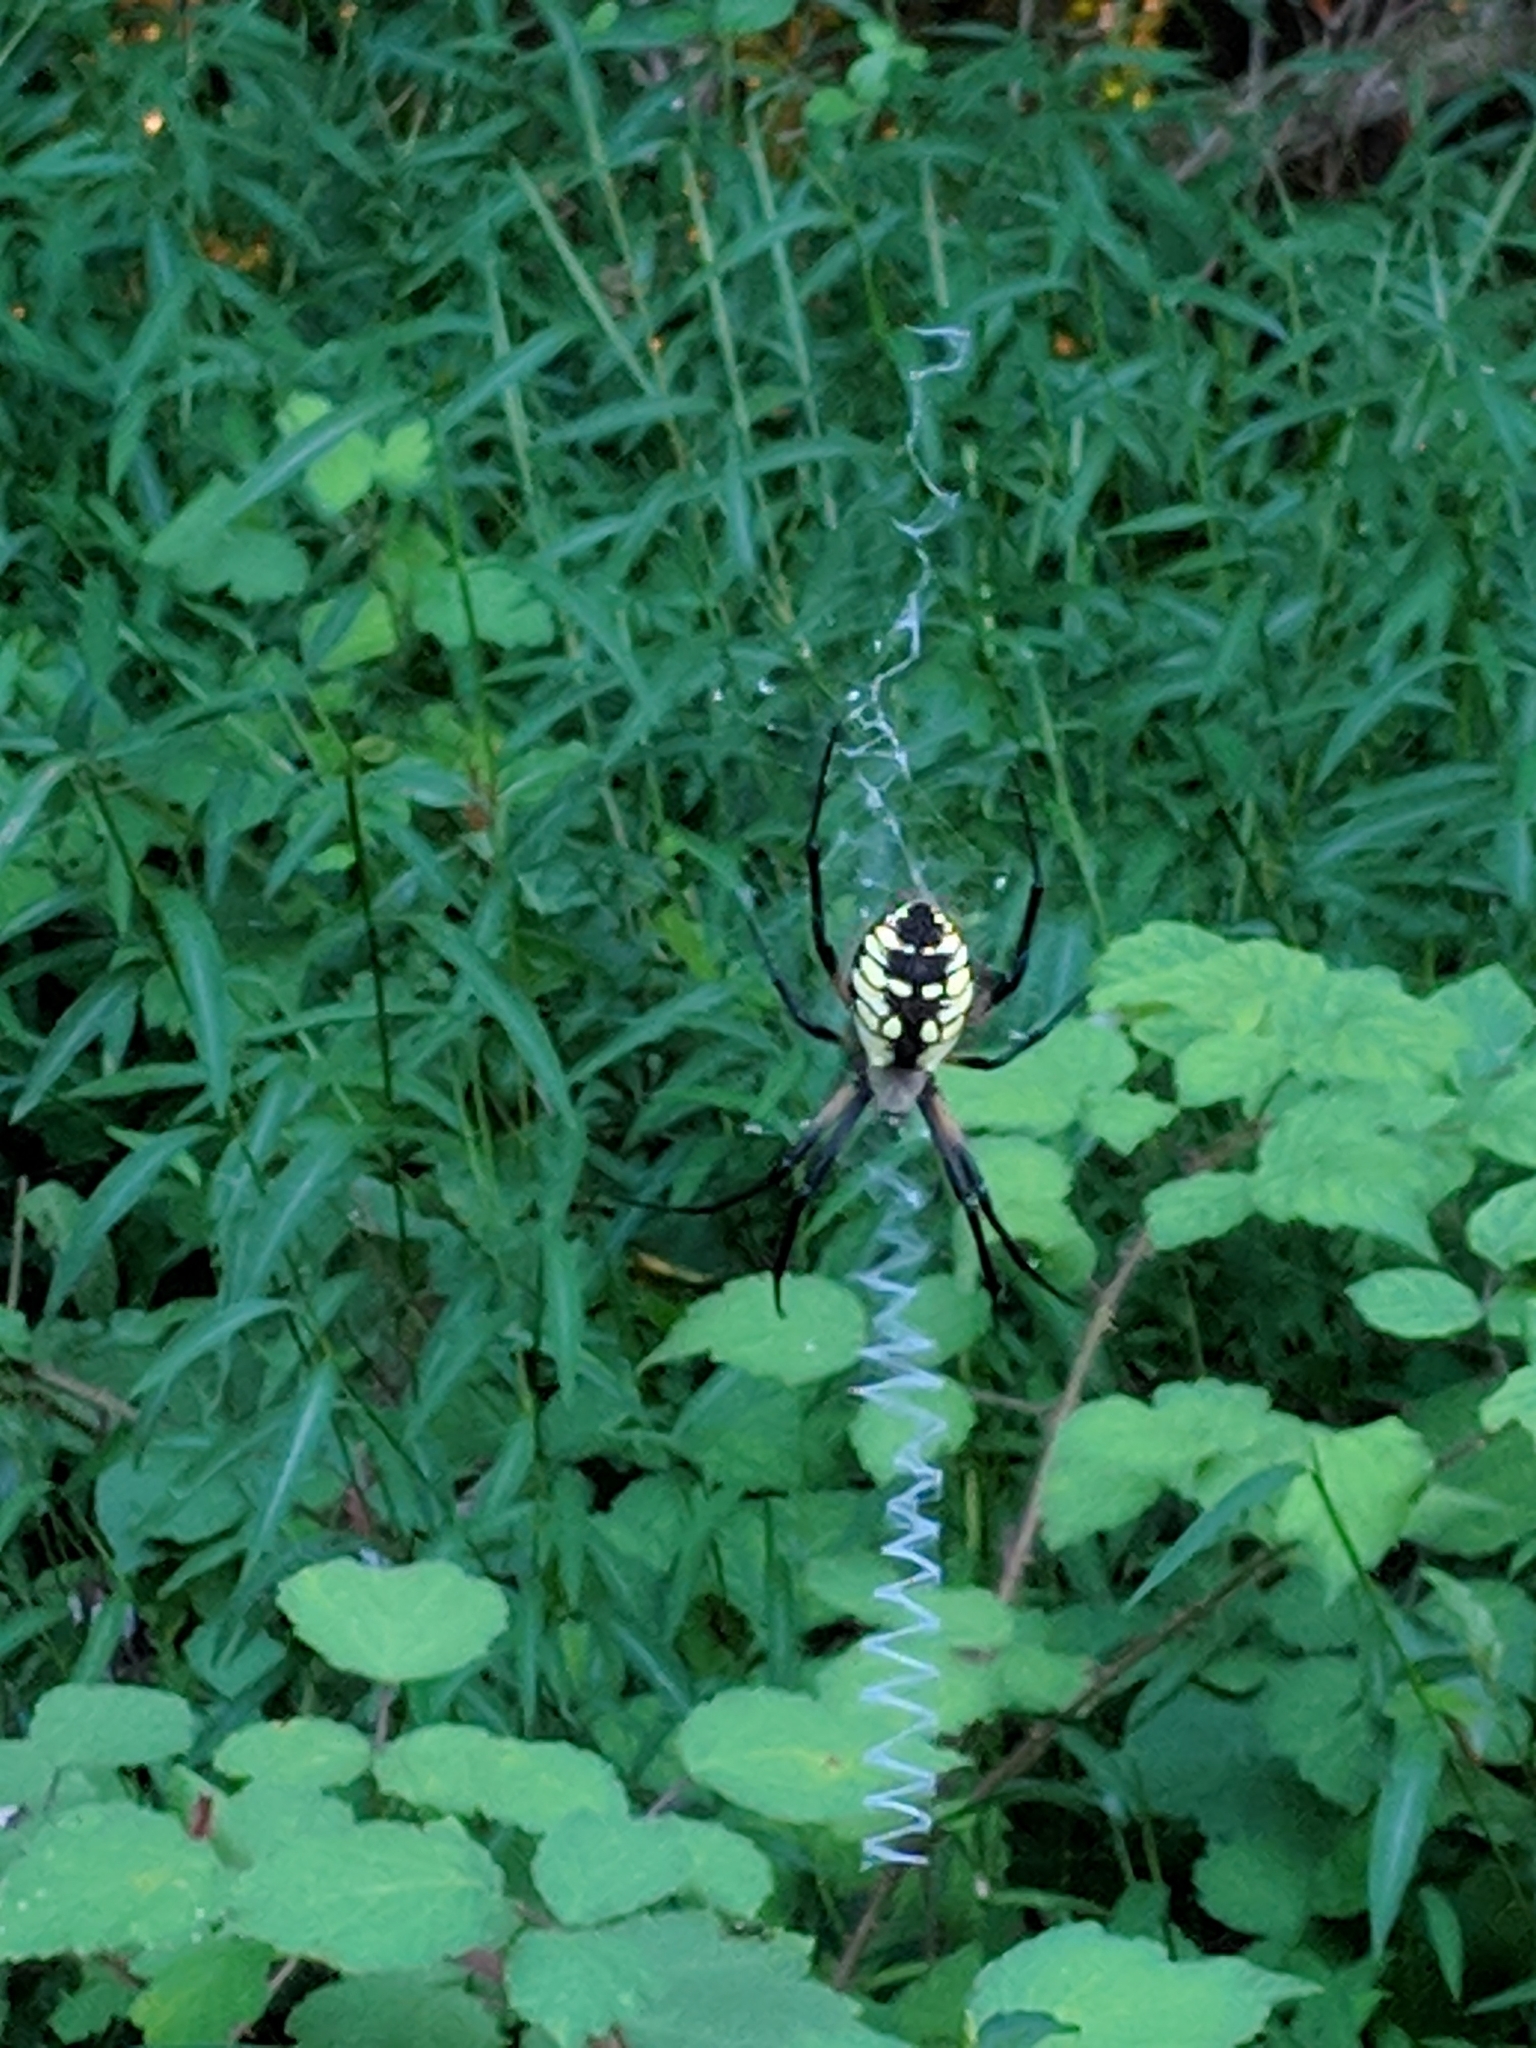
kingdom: Animalia
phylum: Arthropoda
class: Arachnida
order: Araneae
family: Araneidae
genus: Argiope
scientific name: Argiope aurantia
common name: Orb weavers
